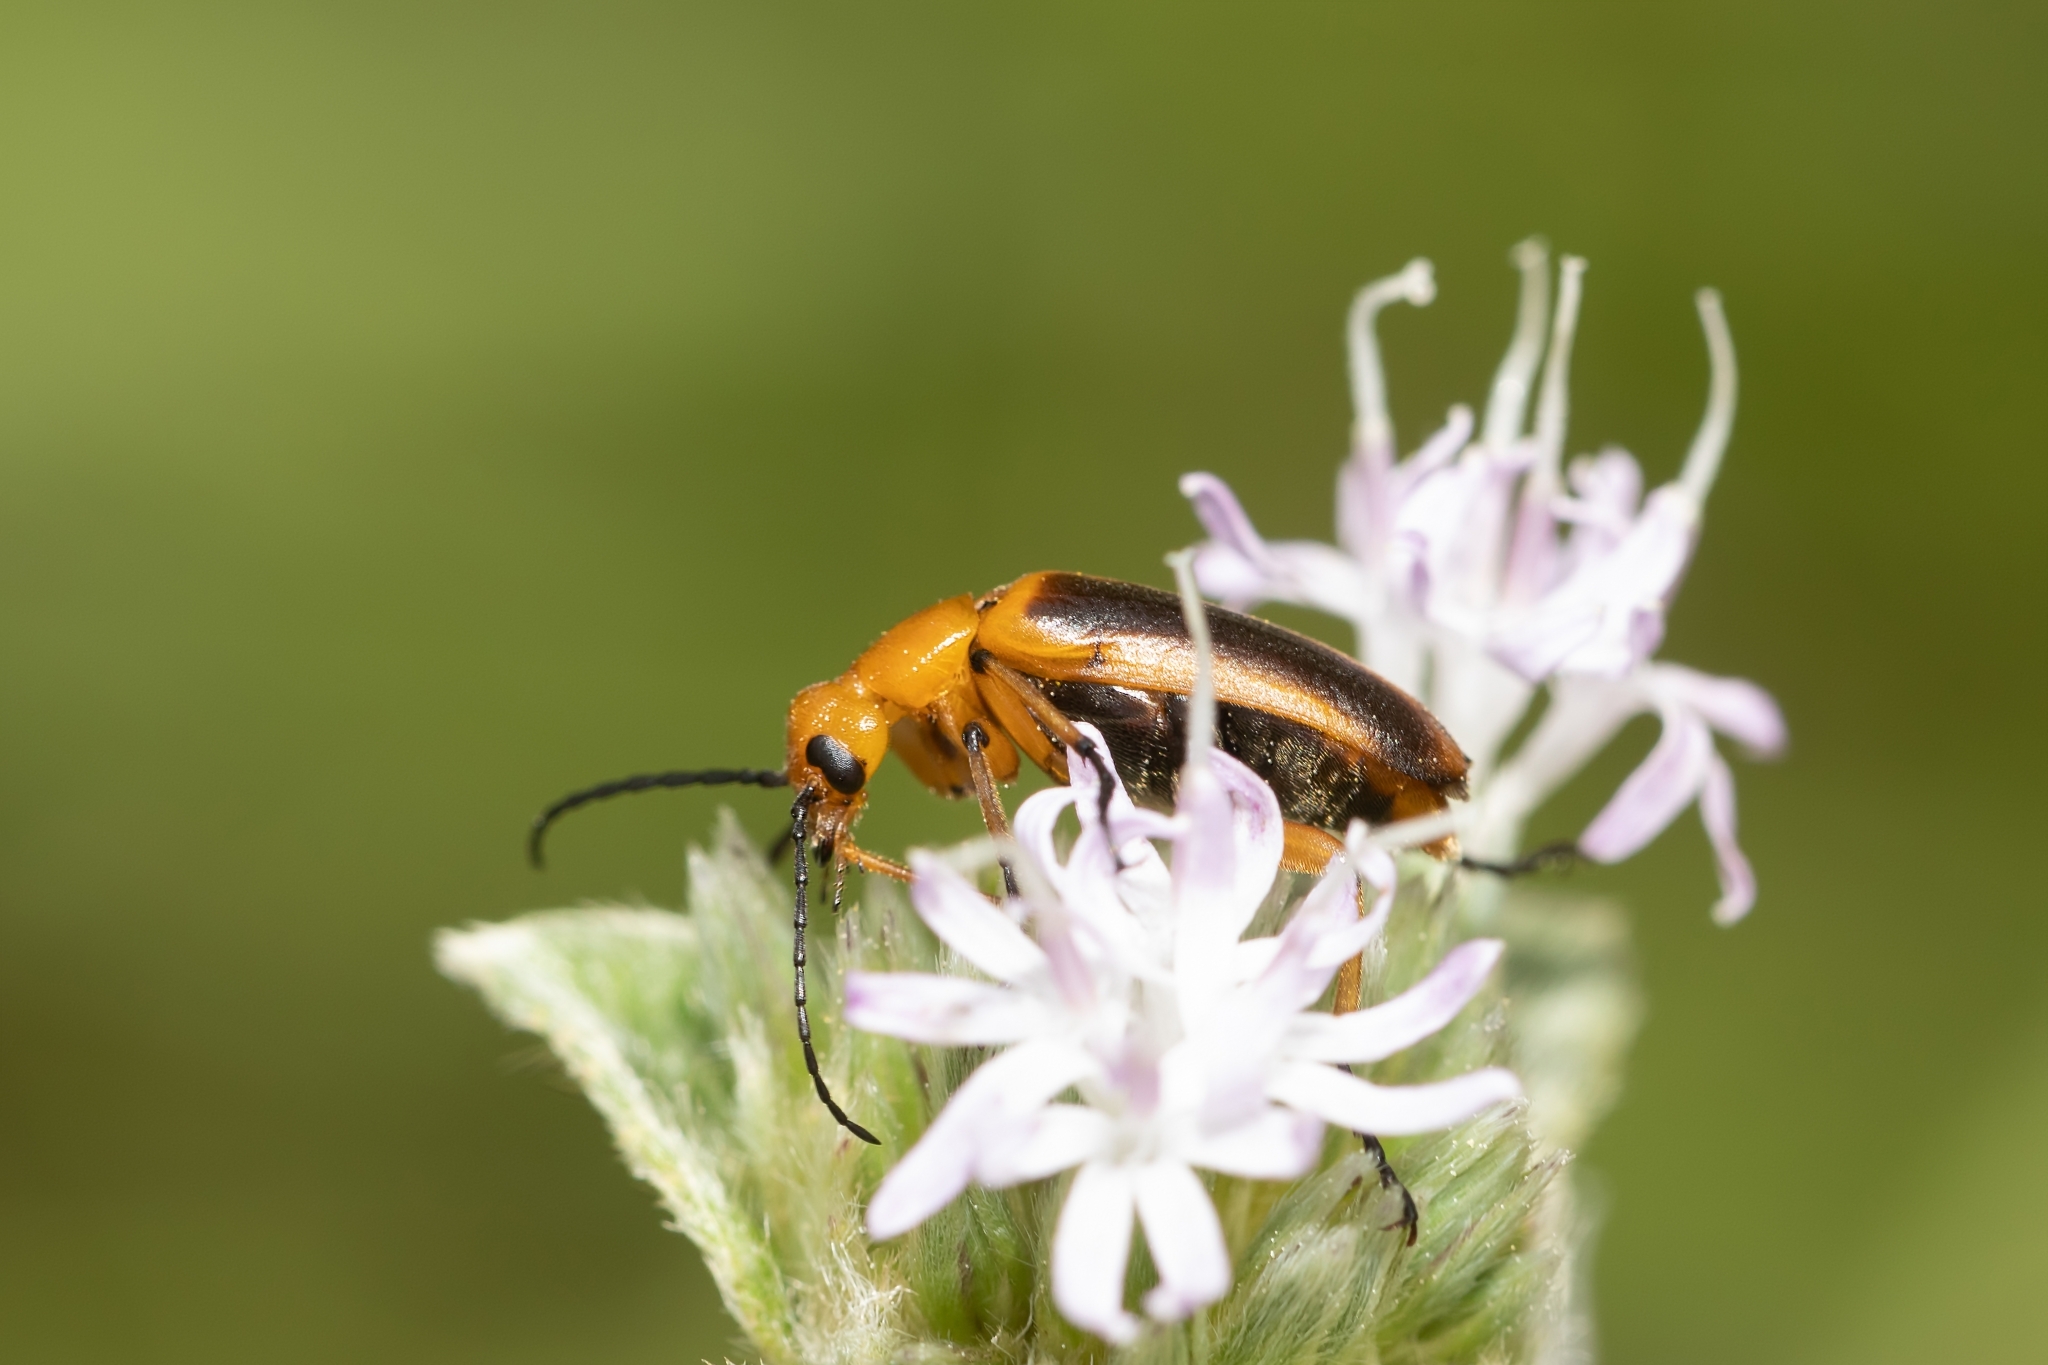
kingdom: Animalia
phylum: Arthropoda
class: Insecta
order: Coleoptera
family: Meloidae
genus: Nemognatha
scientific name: Nemognatha punctulata
